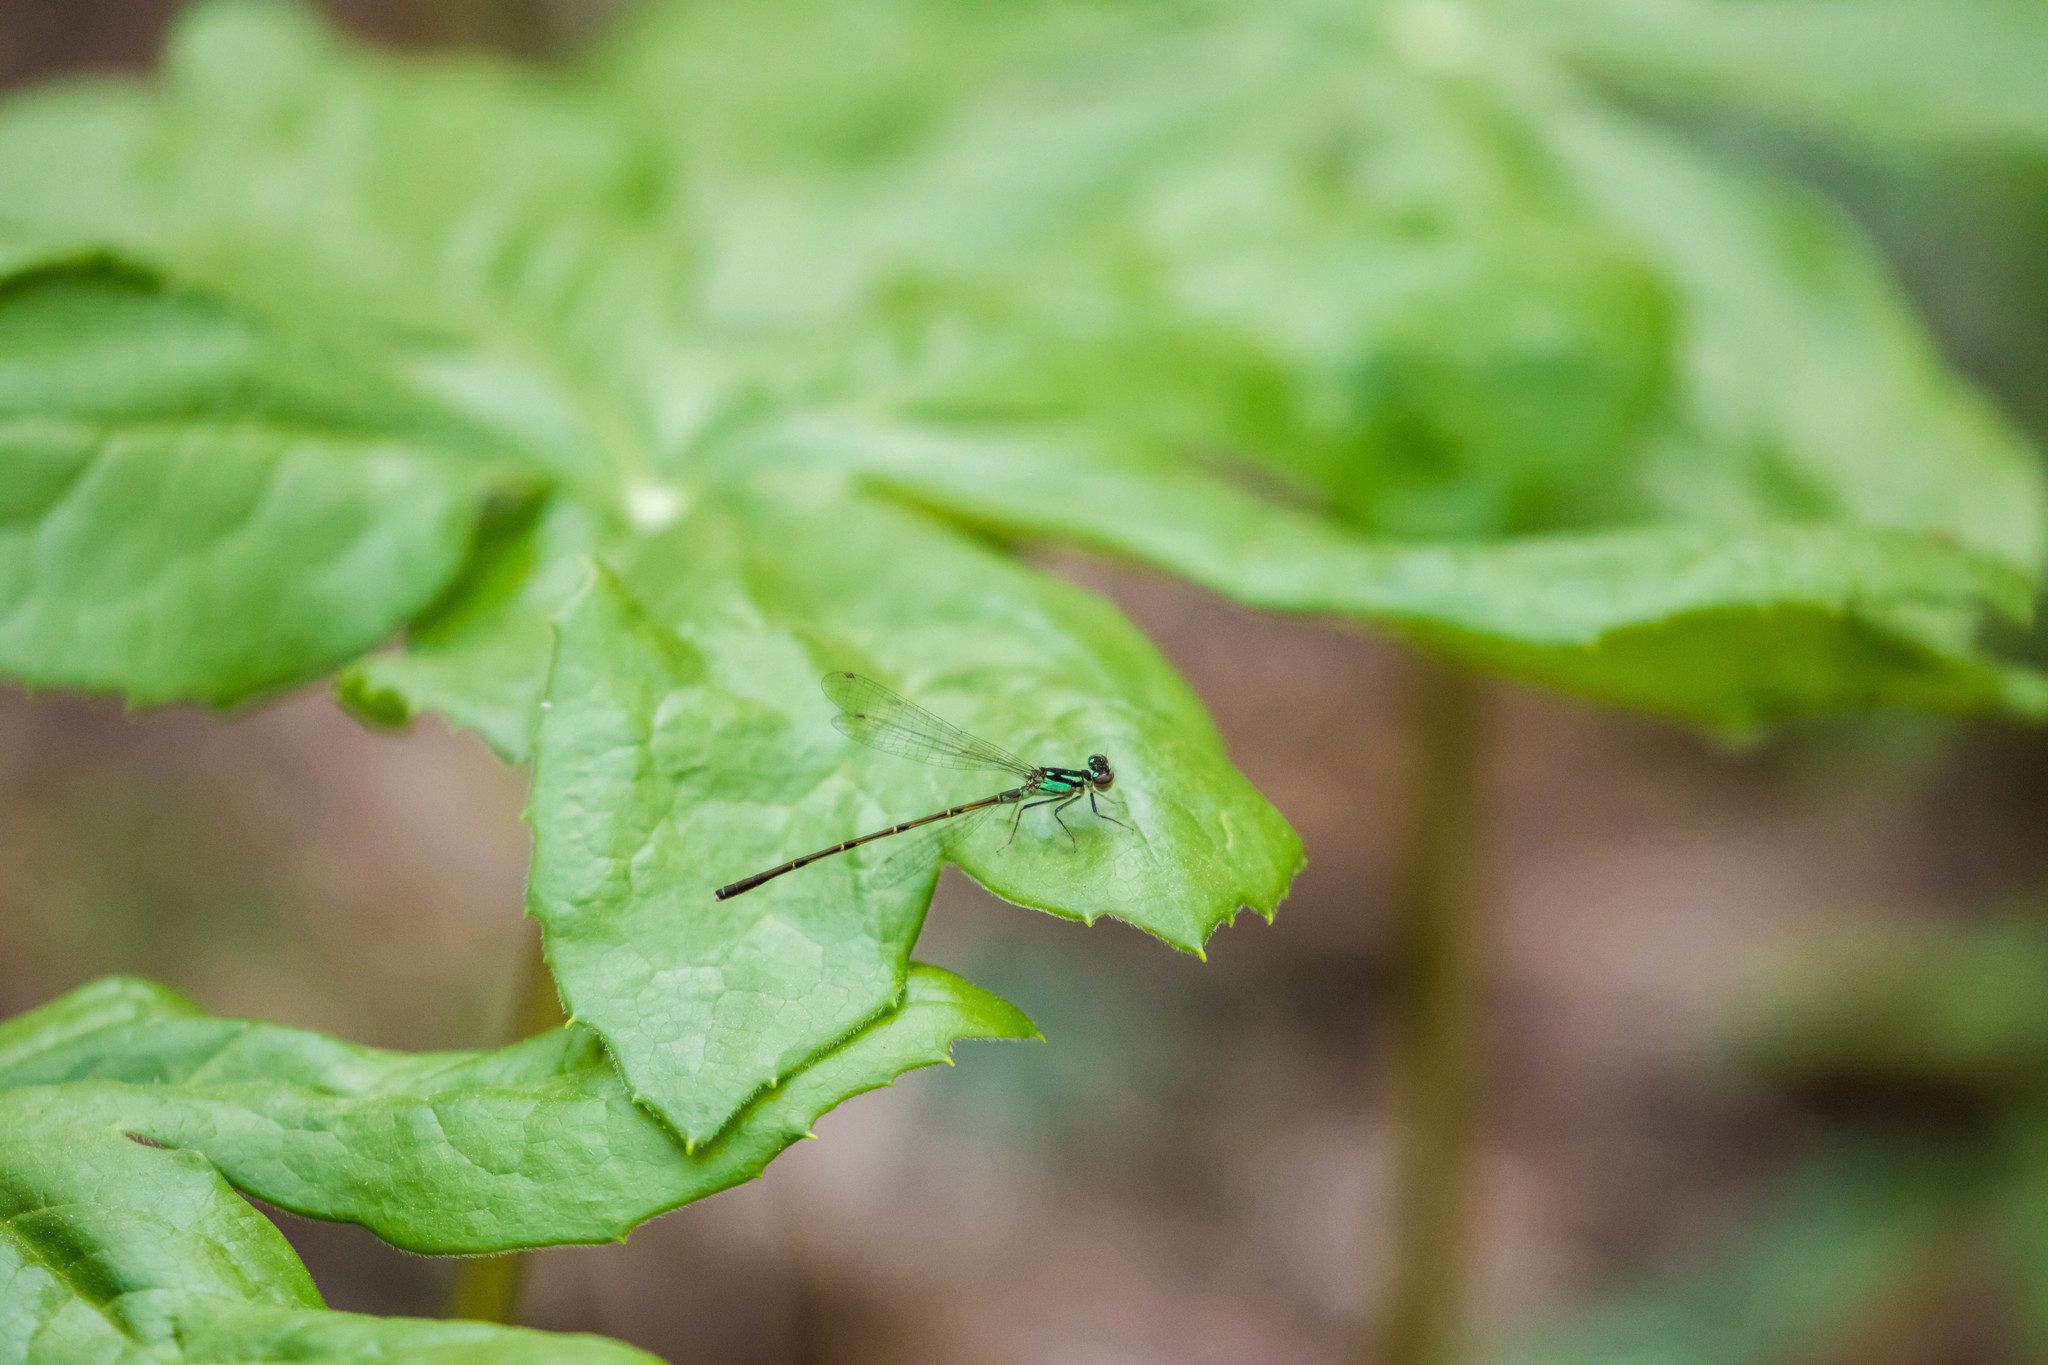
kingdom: Animalia
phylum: Arthropoda
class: Insecta
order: Odonata
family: Coenagrionidae
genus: Ischnura
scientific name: Ischnura posita
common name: Fragile forktail
